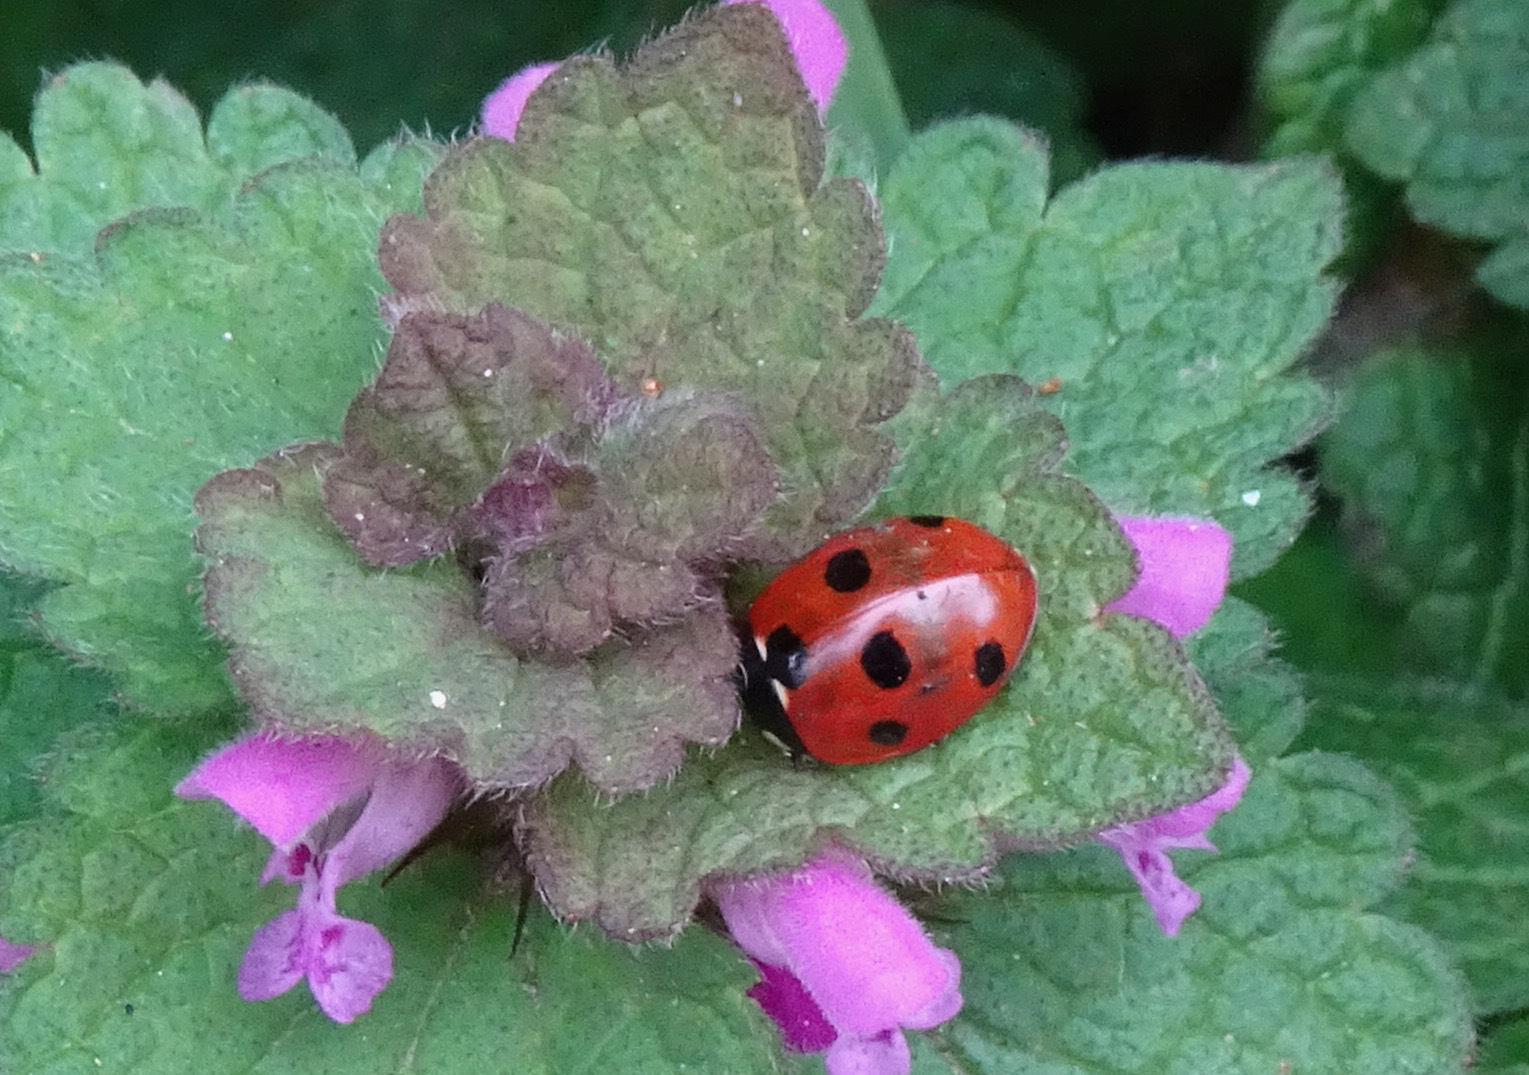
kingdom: Animalia
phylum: Arthropoda
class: Insecta
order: Coleoptera
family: Coccinellidae
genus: Coccinella
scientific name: Coccinella septempunctata
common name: Sevenspotted lady beetle
